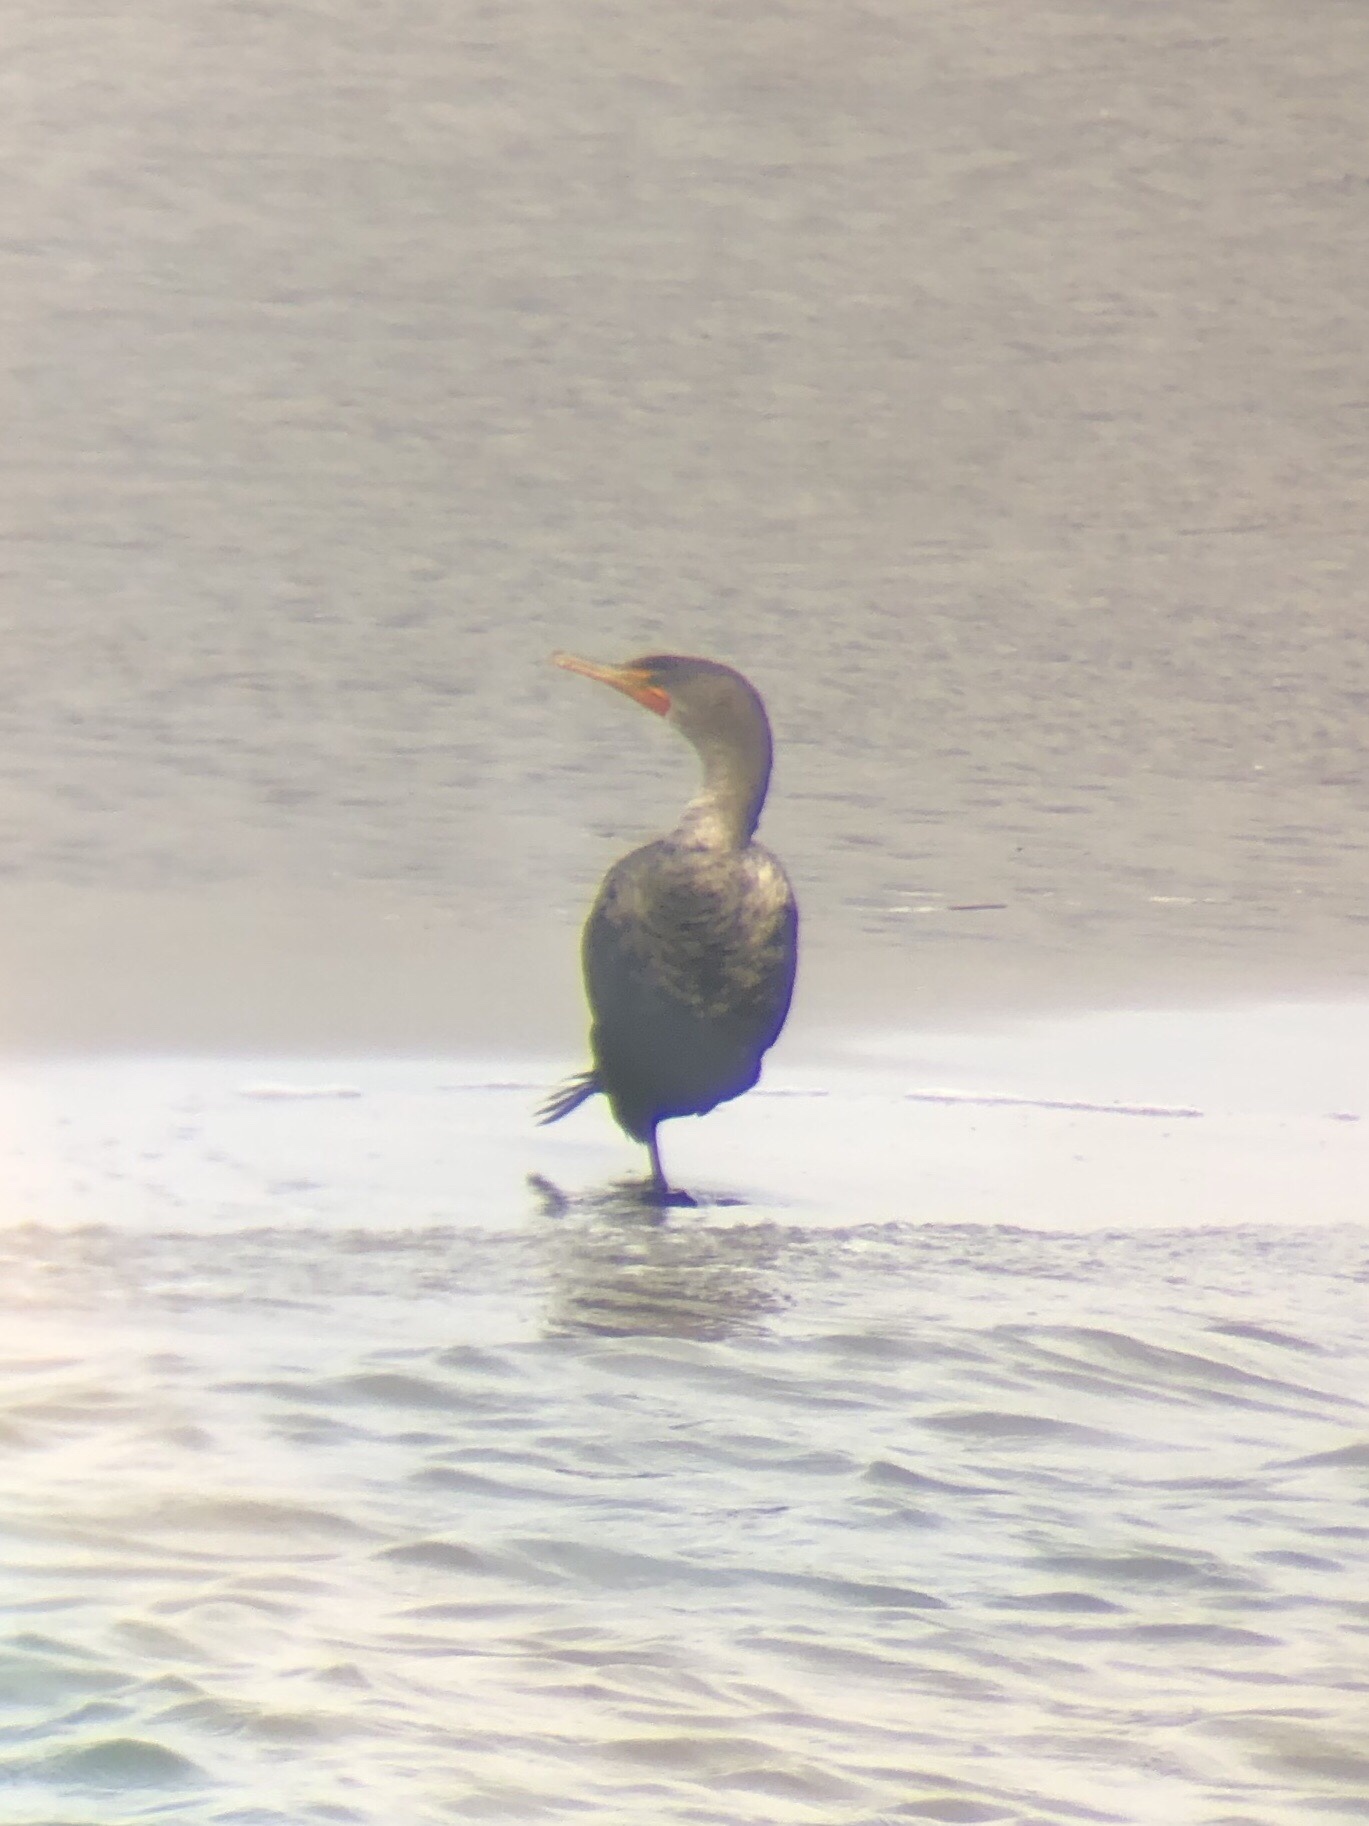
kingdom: Animalia
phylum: Chordata
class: Aves
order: Suliformes
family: Phalacrocoracidae
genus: Phalacrocorax
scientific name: Phalacrocorax auritus
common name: Double-crested cormorant
